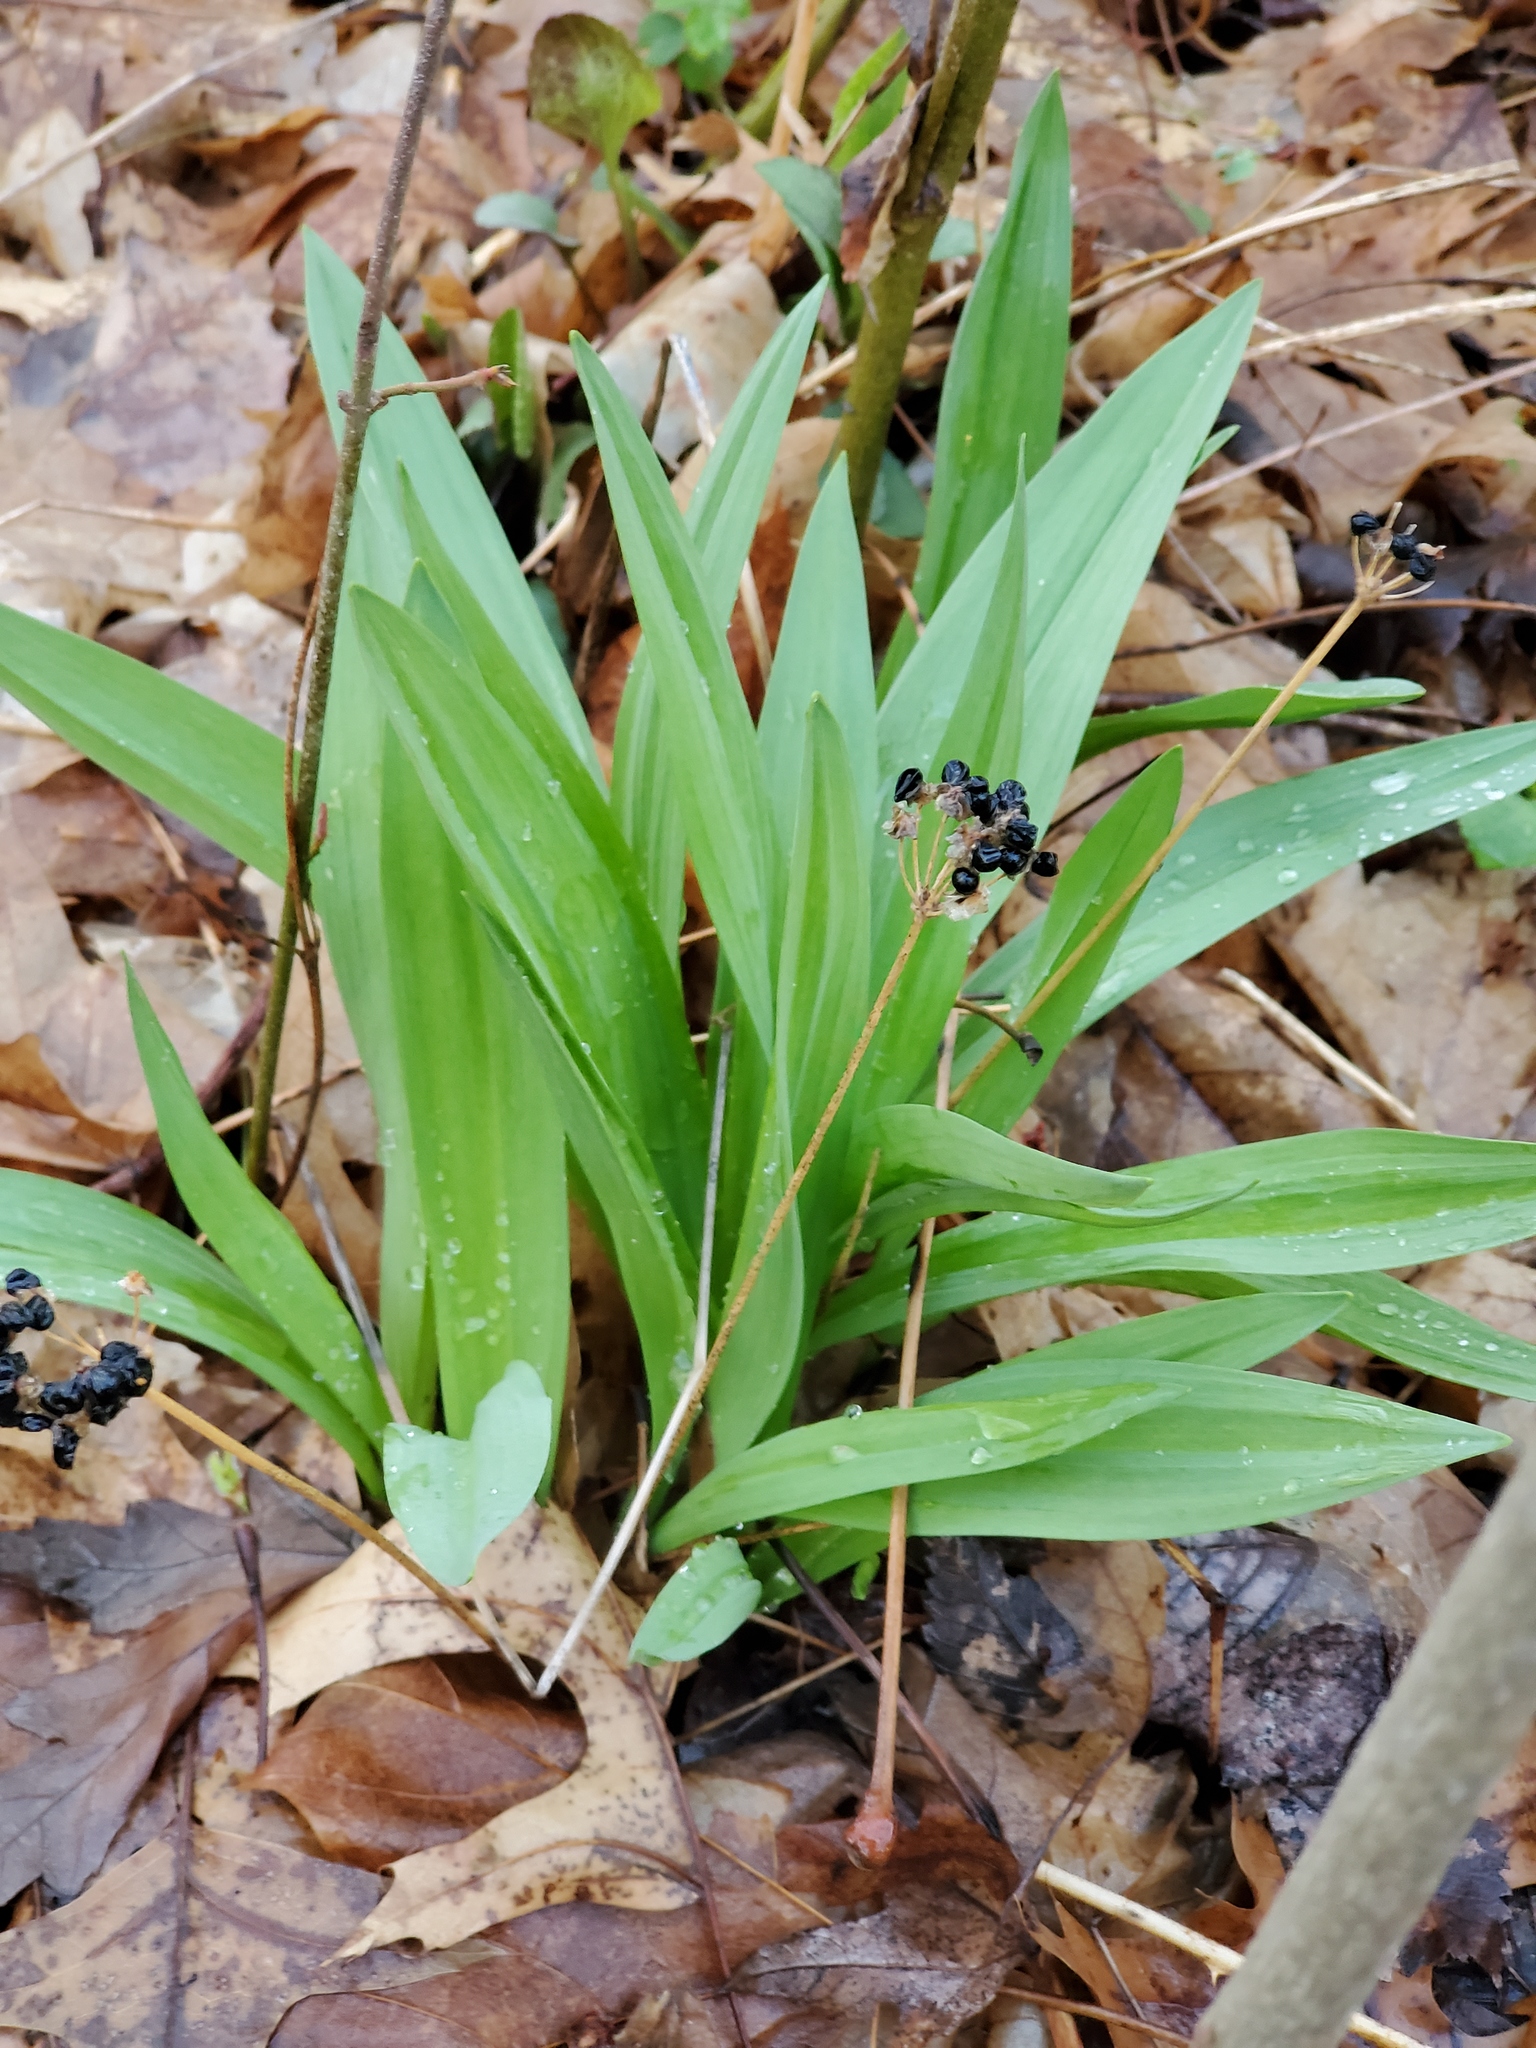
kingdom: Plantae
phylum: Tracheophyta
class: Liliopsida
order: Asparagales
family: Amaryllidaceae
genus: Allium
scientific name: Allium tricoccum
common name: Ramp
